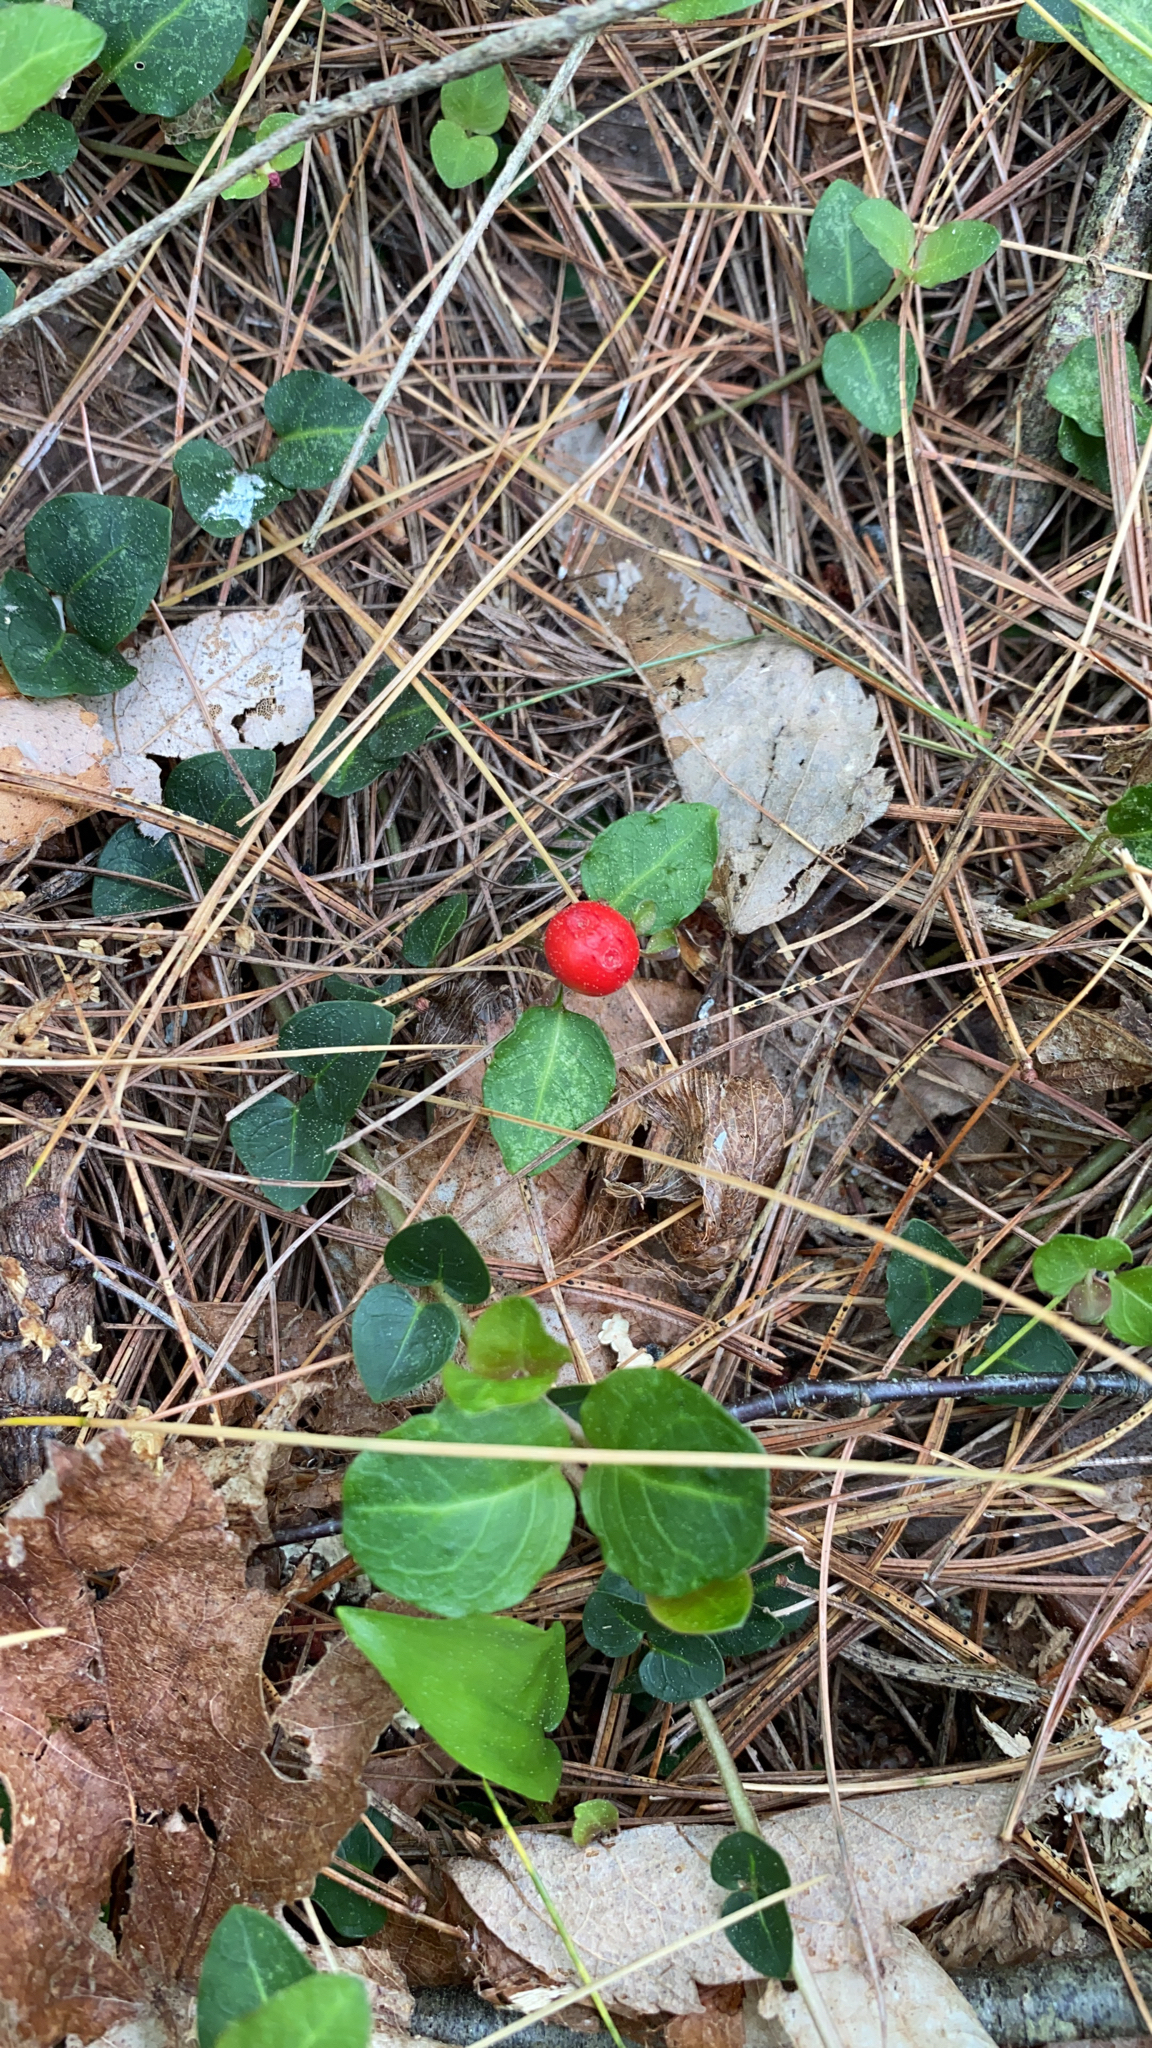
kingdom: Plantae
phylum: Tracheophyta
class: Magnoliopsida
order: Gentianales
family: Rubiaceae
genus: Mitchella
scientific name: Mitchella repens
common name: Partridge-berry
